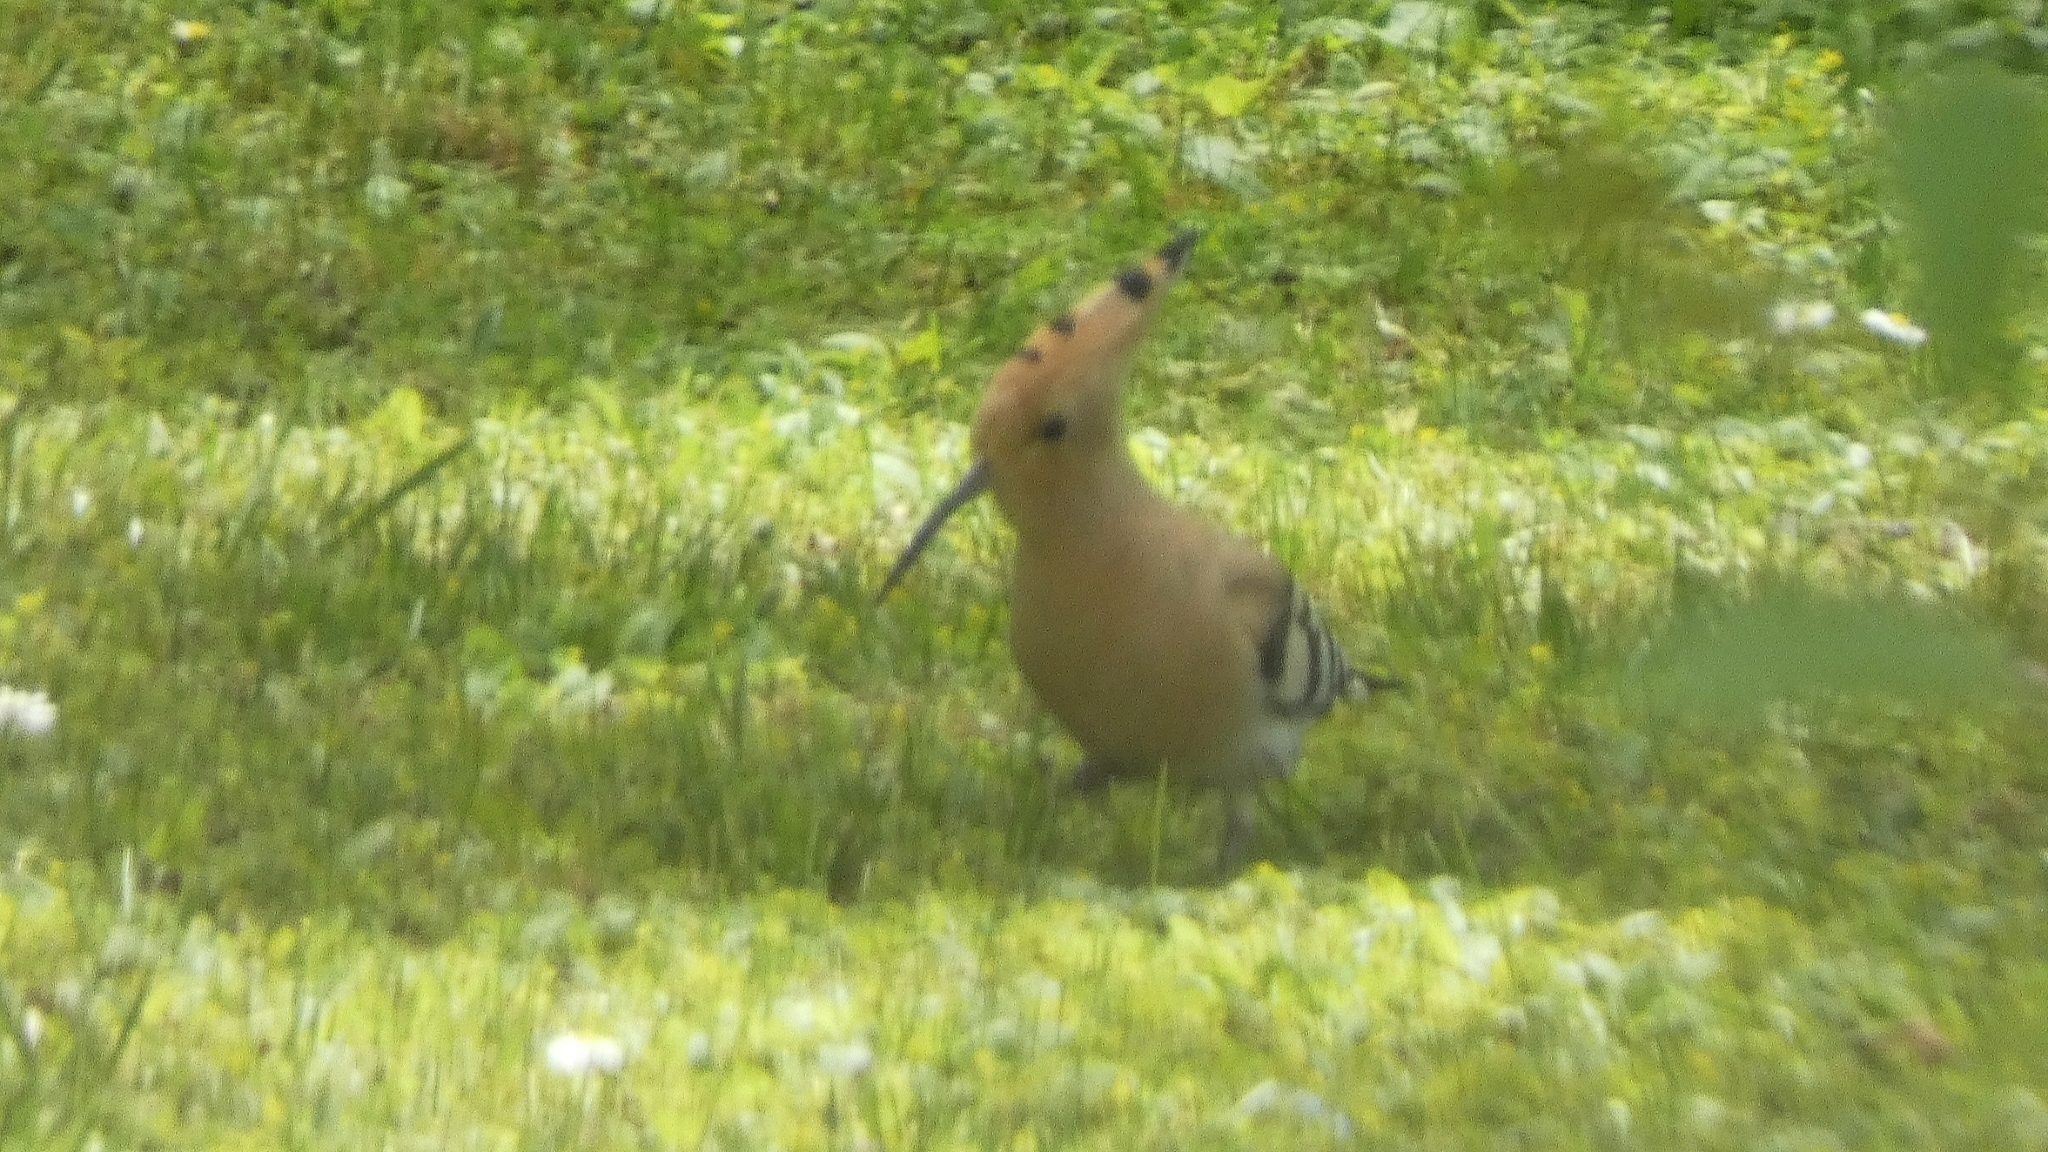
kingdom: Animalia
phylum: Chordata
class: Aves
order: Bucerotiformes
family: Upupidae
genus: Upupa
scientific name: Upupa epops
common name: Eurasian hoopoe
